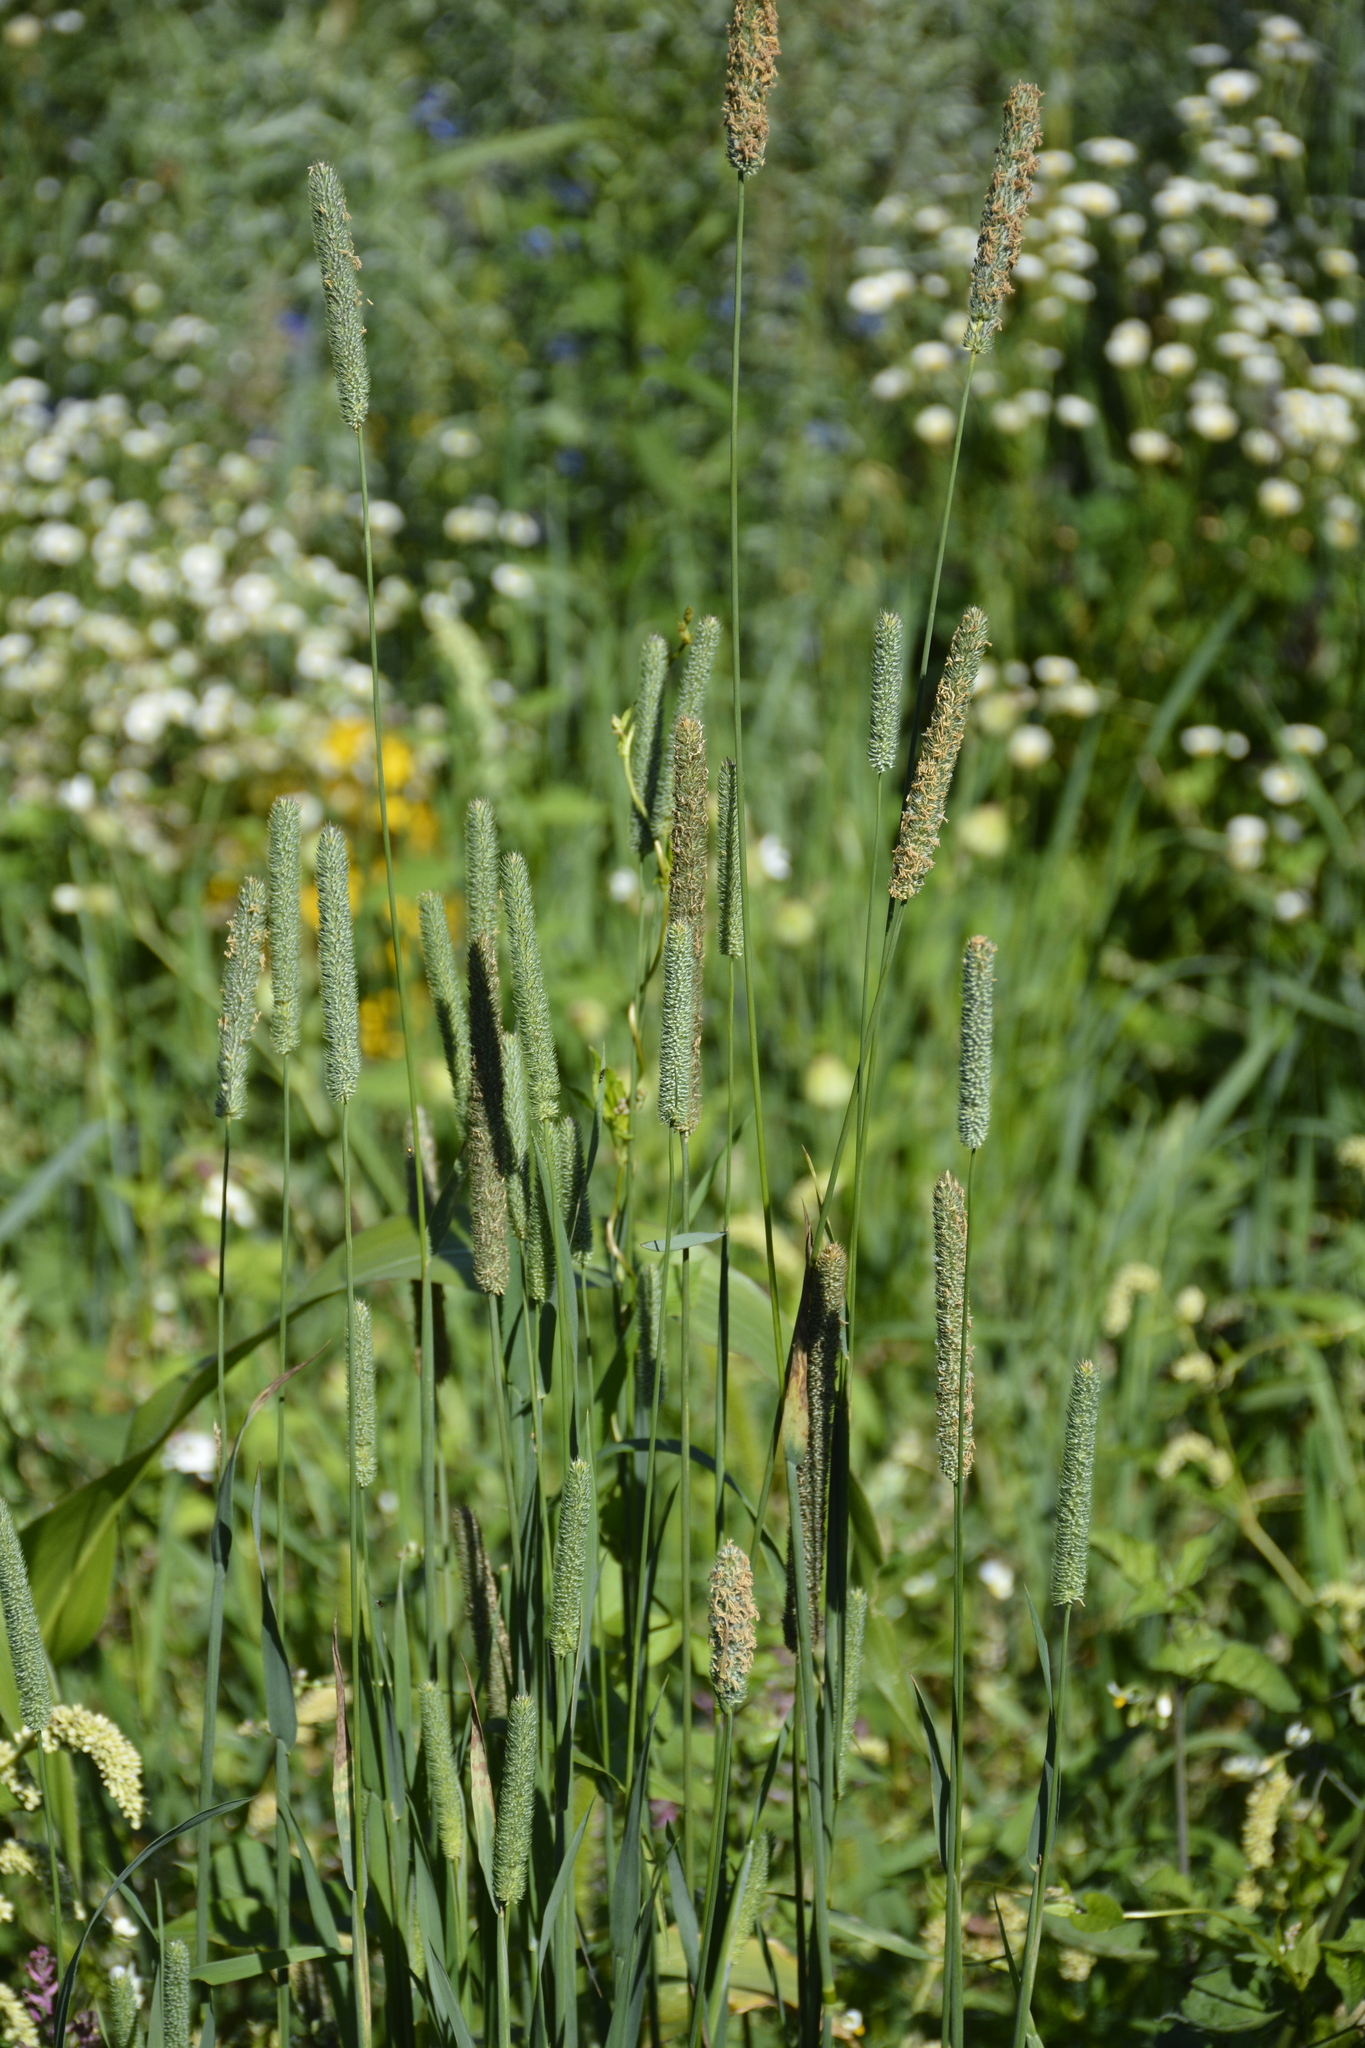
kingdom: Plantae
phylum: Tracheophyta
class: Liliopsida
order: Poales
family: Poaceae
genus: Phleum
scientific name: Phleum pratense
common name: Timothy grass
